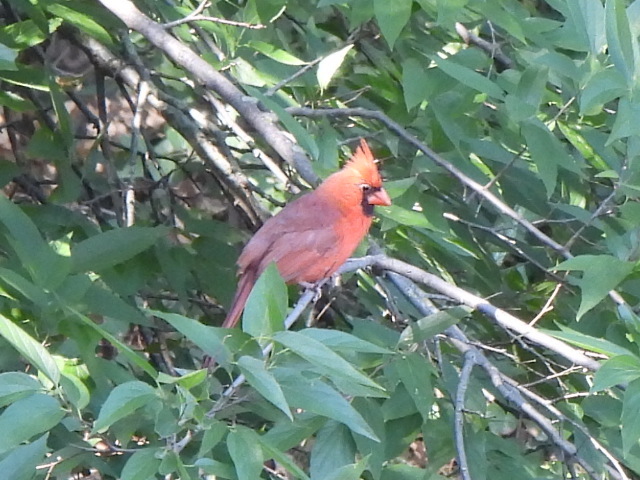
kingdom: Animalia
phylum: Chordata
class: Aves
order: Passeriformes
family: Cardinalidae
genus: Cardinalis
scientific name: Cardinalis cardinalis
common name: Northern cardinal
